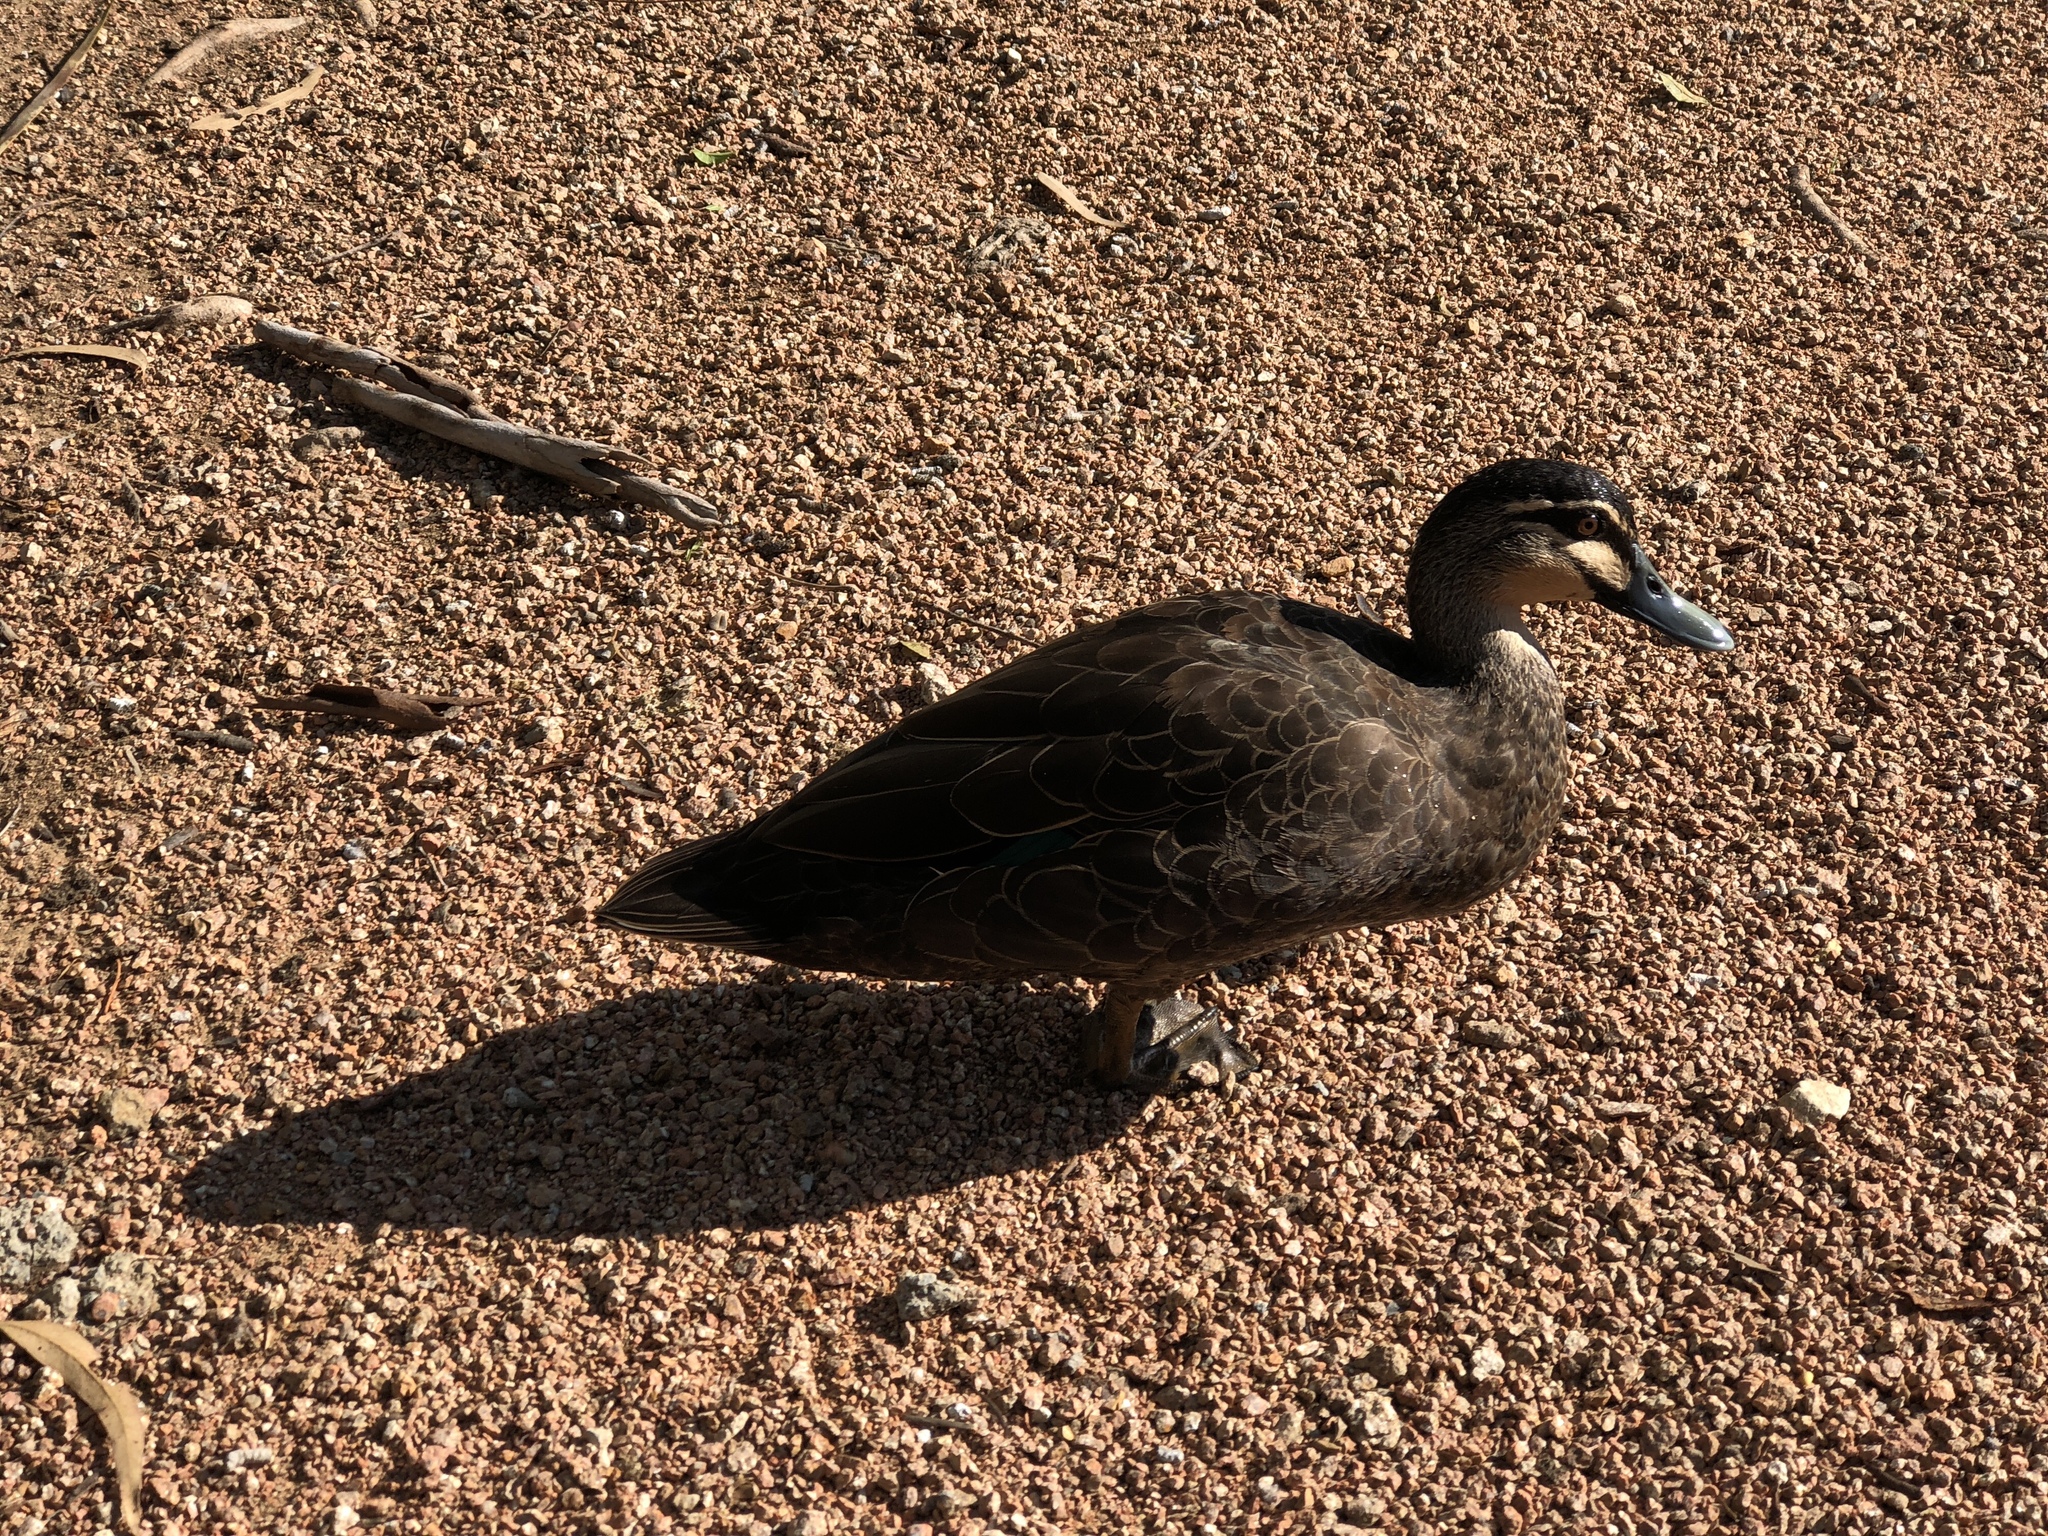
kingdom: Animalia
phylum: Chordata
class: Aves
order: Anseriformes
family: Anatidae
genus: Anas
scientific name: Anas superciliosa
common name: Pacific black duck
